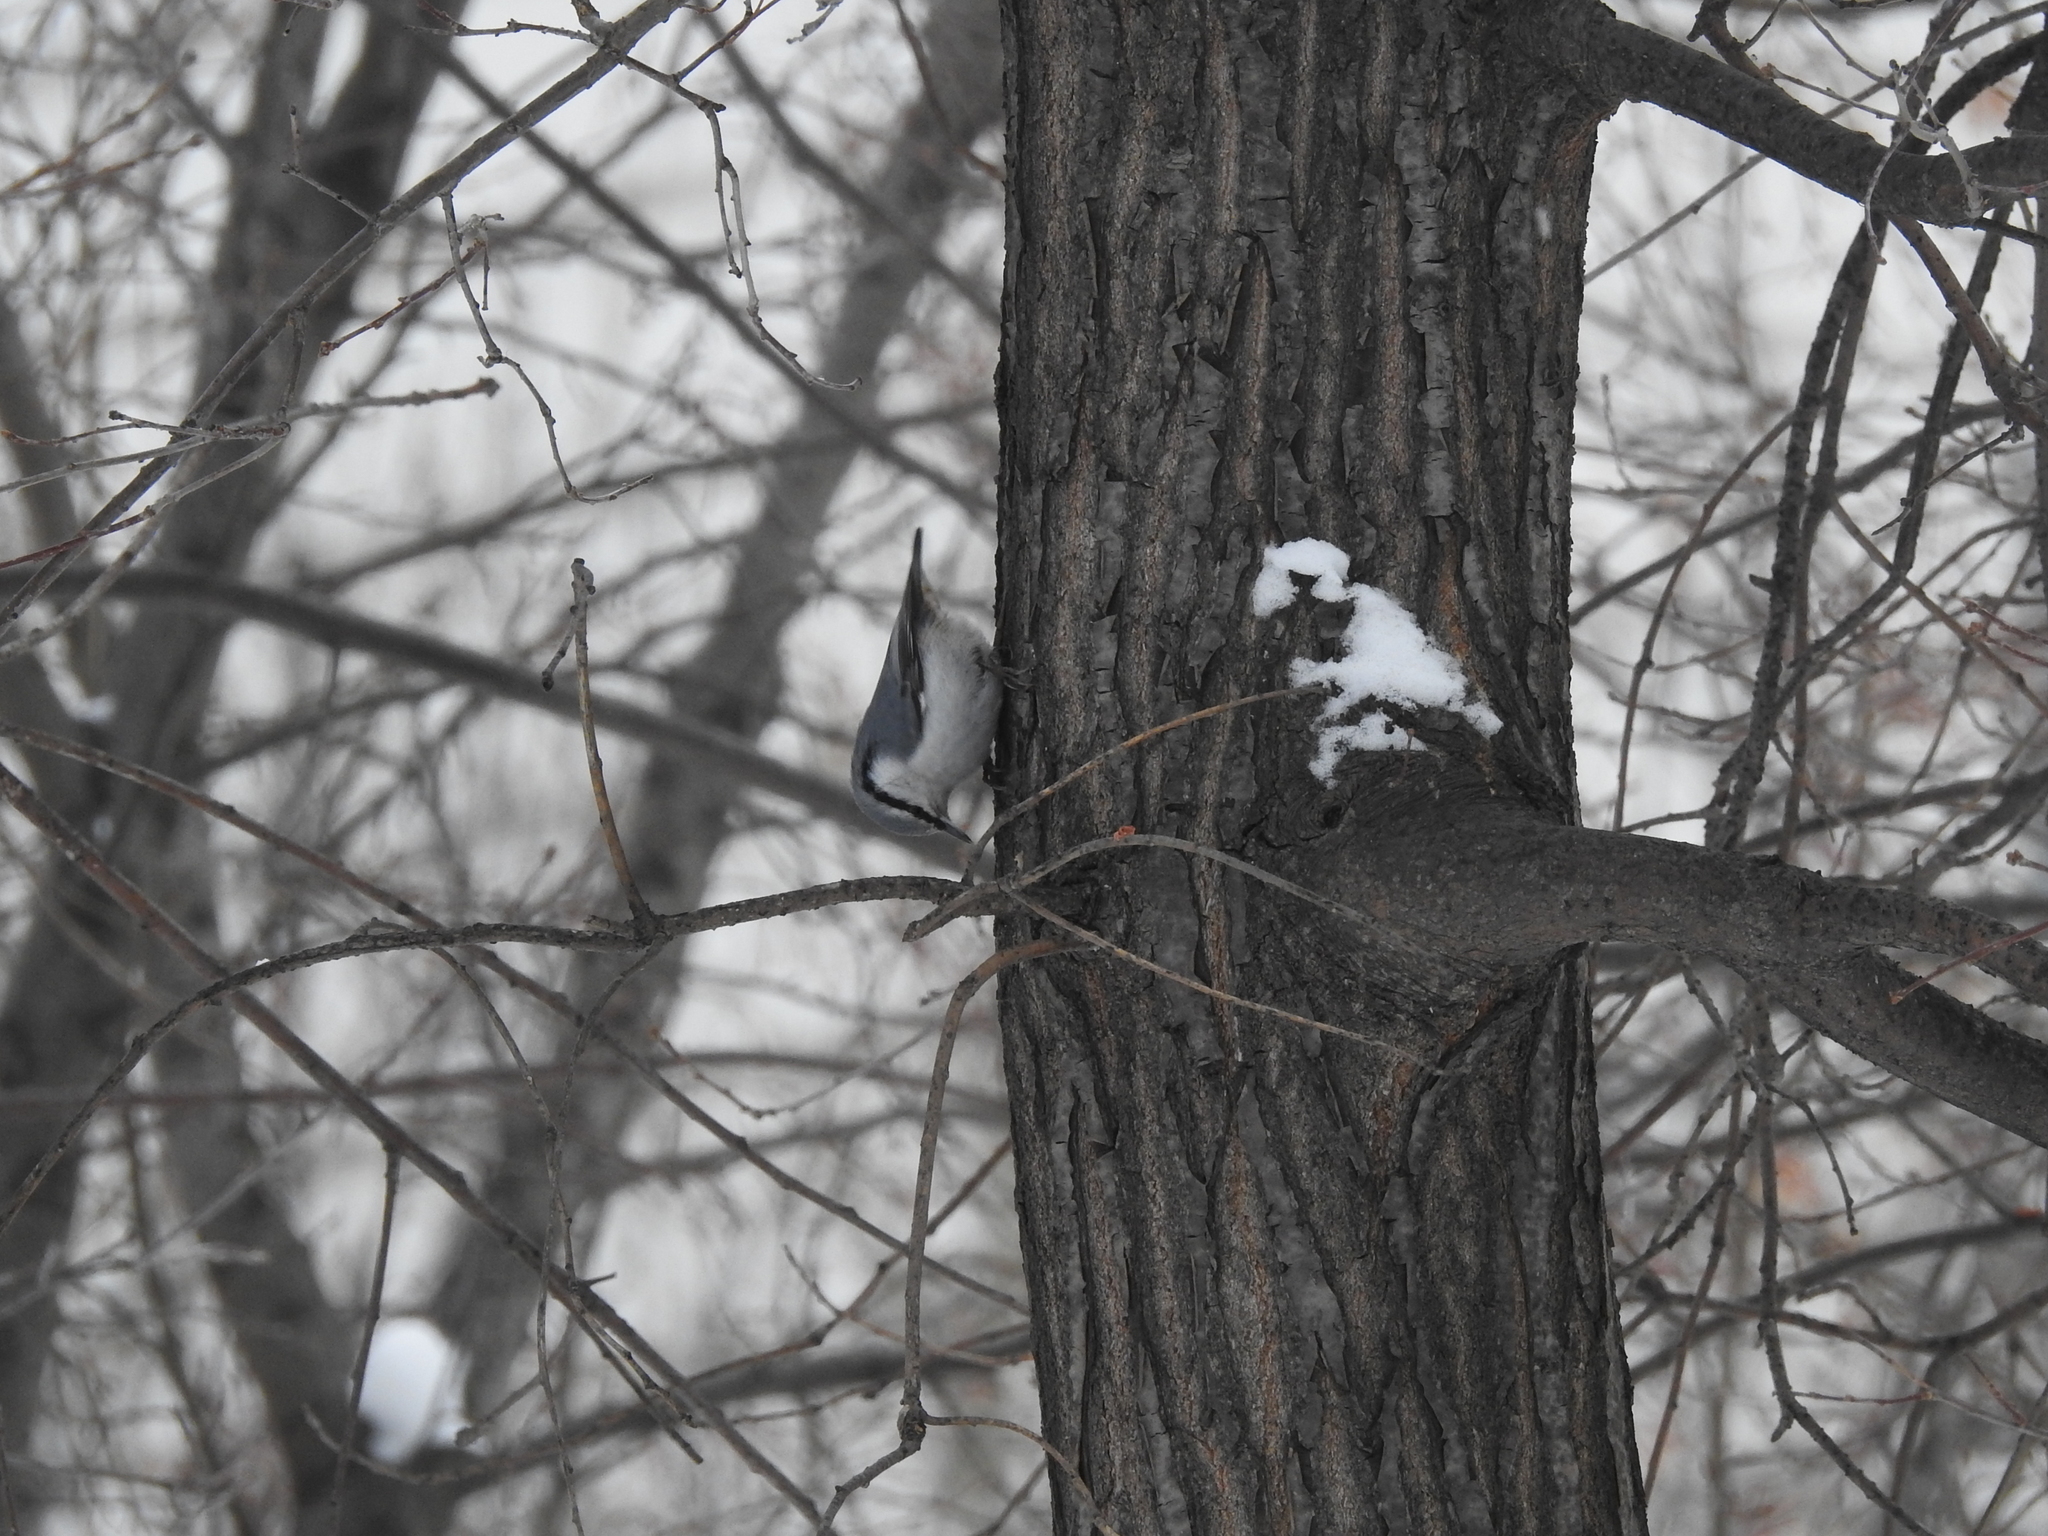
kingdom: Animalia
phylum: Chordata
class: Aves
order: Passeriformes
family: Sittidae
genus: Sitta
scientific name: Sitta europaea
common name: Eurasian nuthatch
